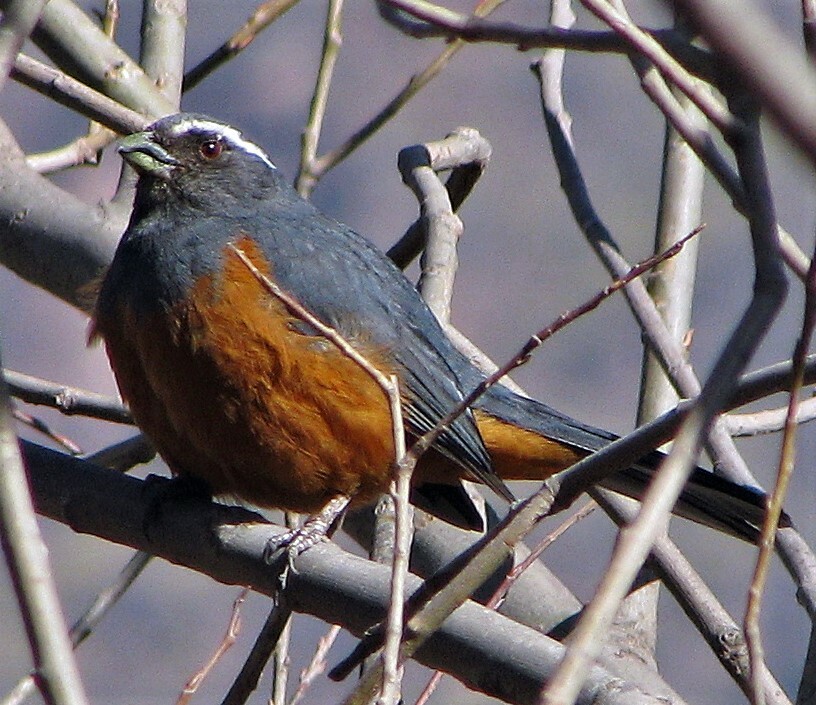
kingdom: Animalia
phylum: Chordata
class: Aves
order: Passeriformes
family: Thraupidae
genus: Pseudosaltator
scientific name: Pseudosaltator rufiventris
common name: Rufous-bellied mountain-tanager
